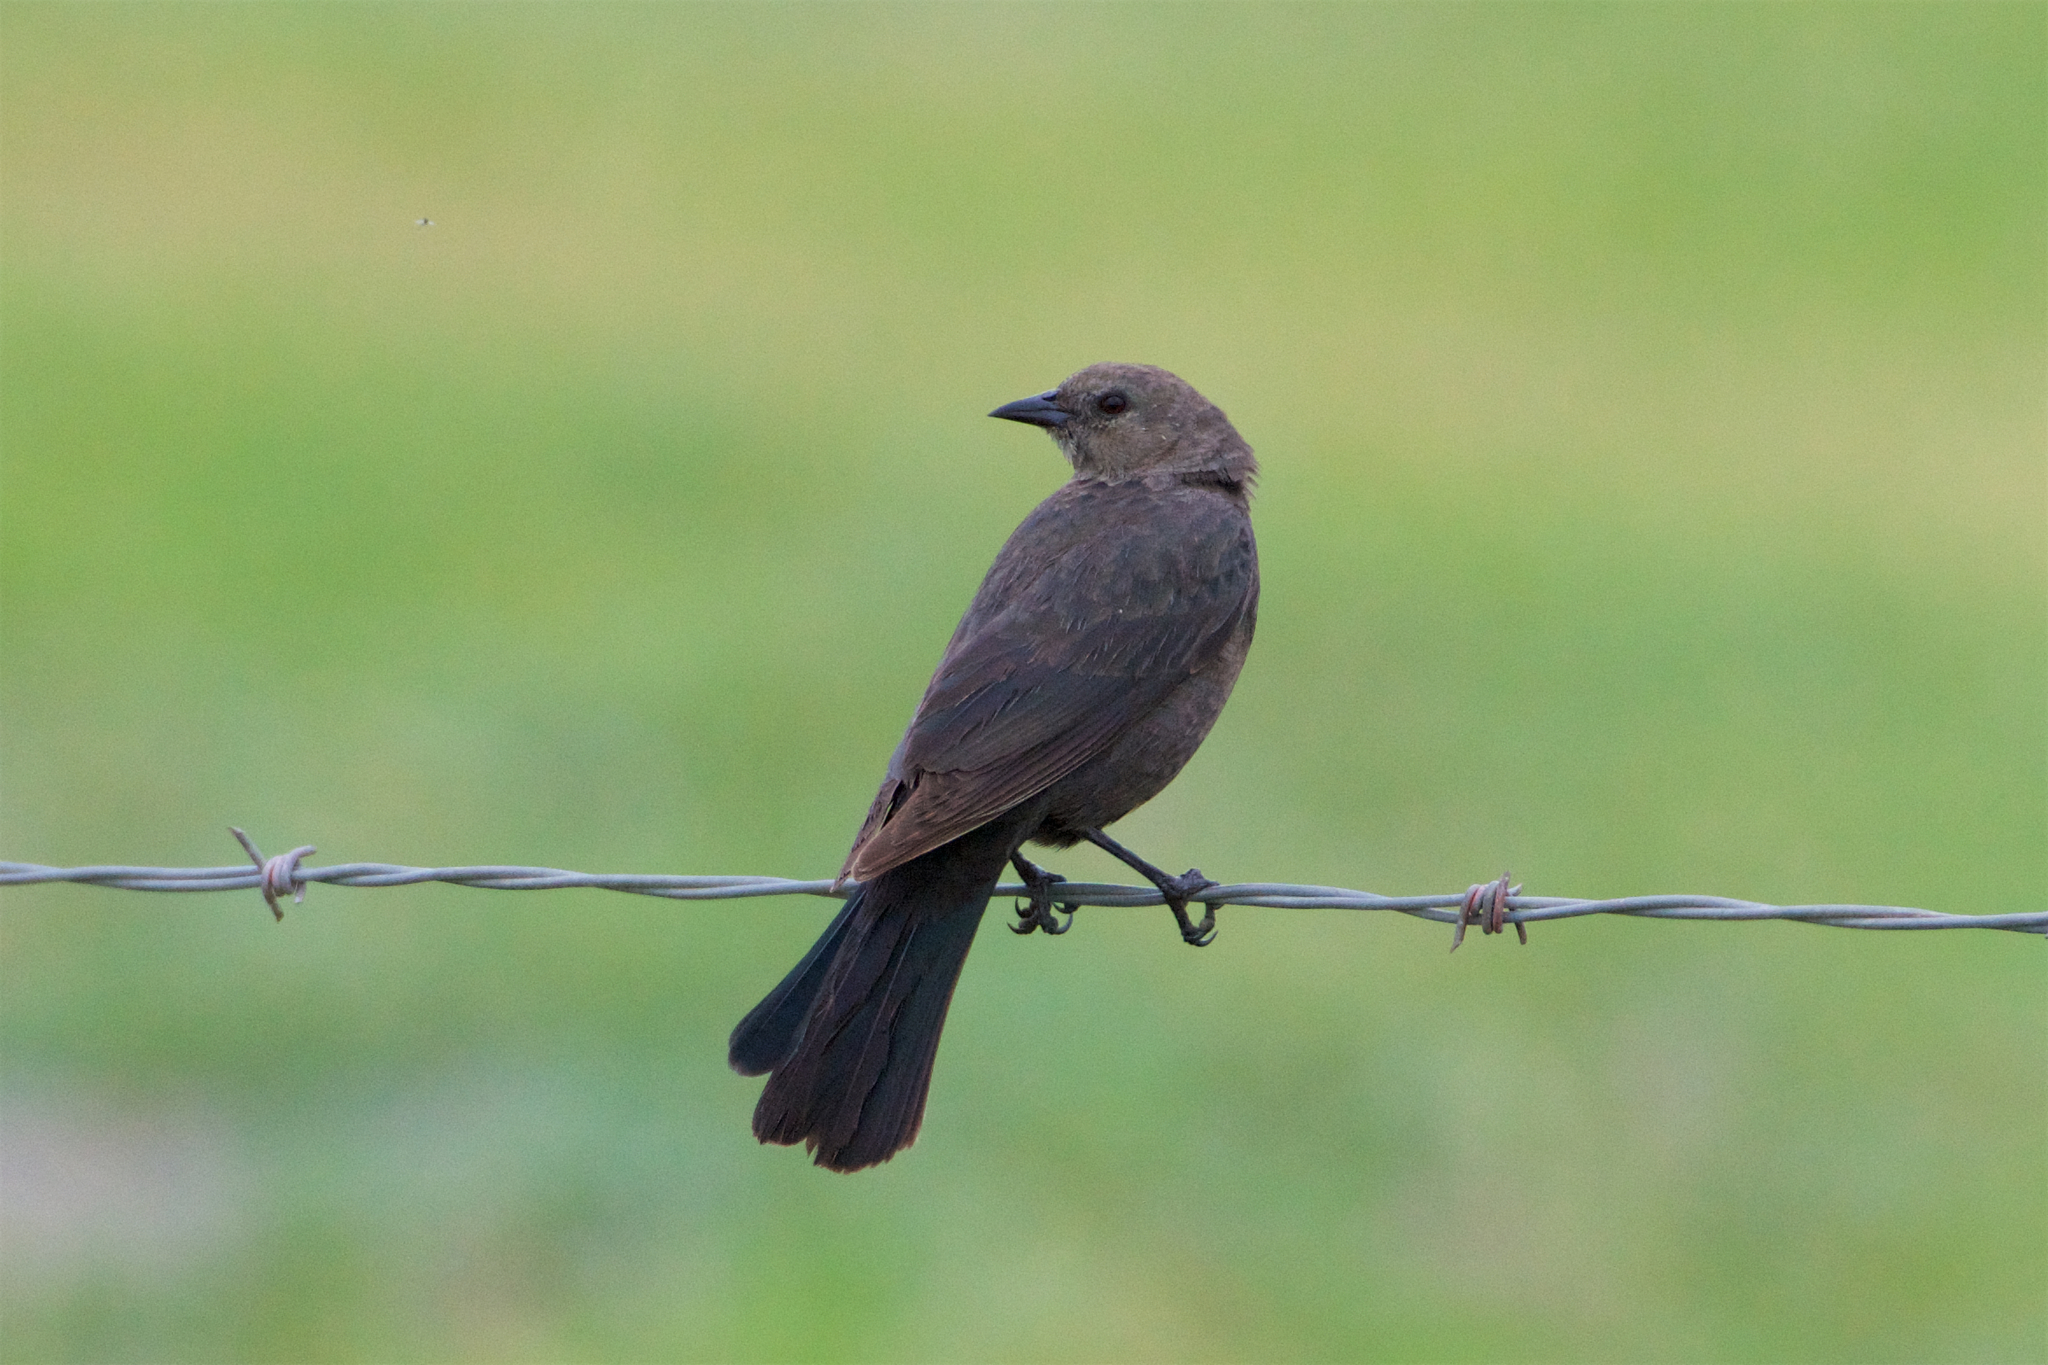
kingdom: Animalia
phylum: Chordata
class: Aves
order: Passeriformes
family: Icteridae
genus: Euphagus
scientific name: Euphagus cyanocephalus
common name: Brewer's blackbird
